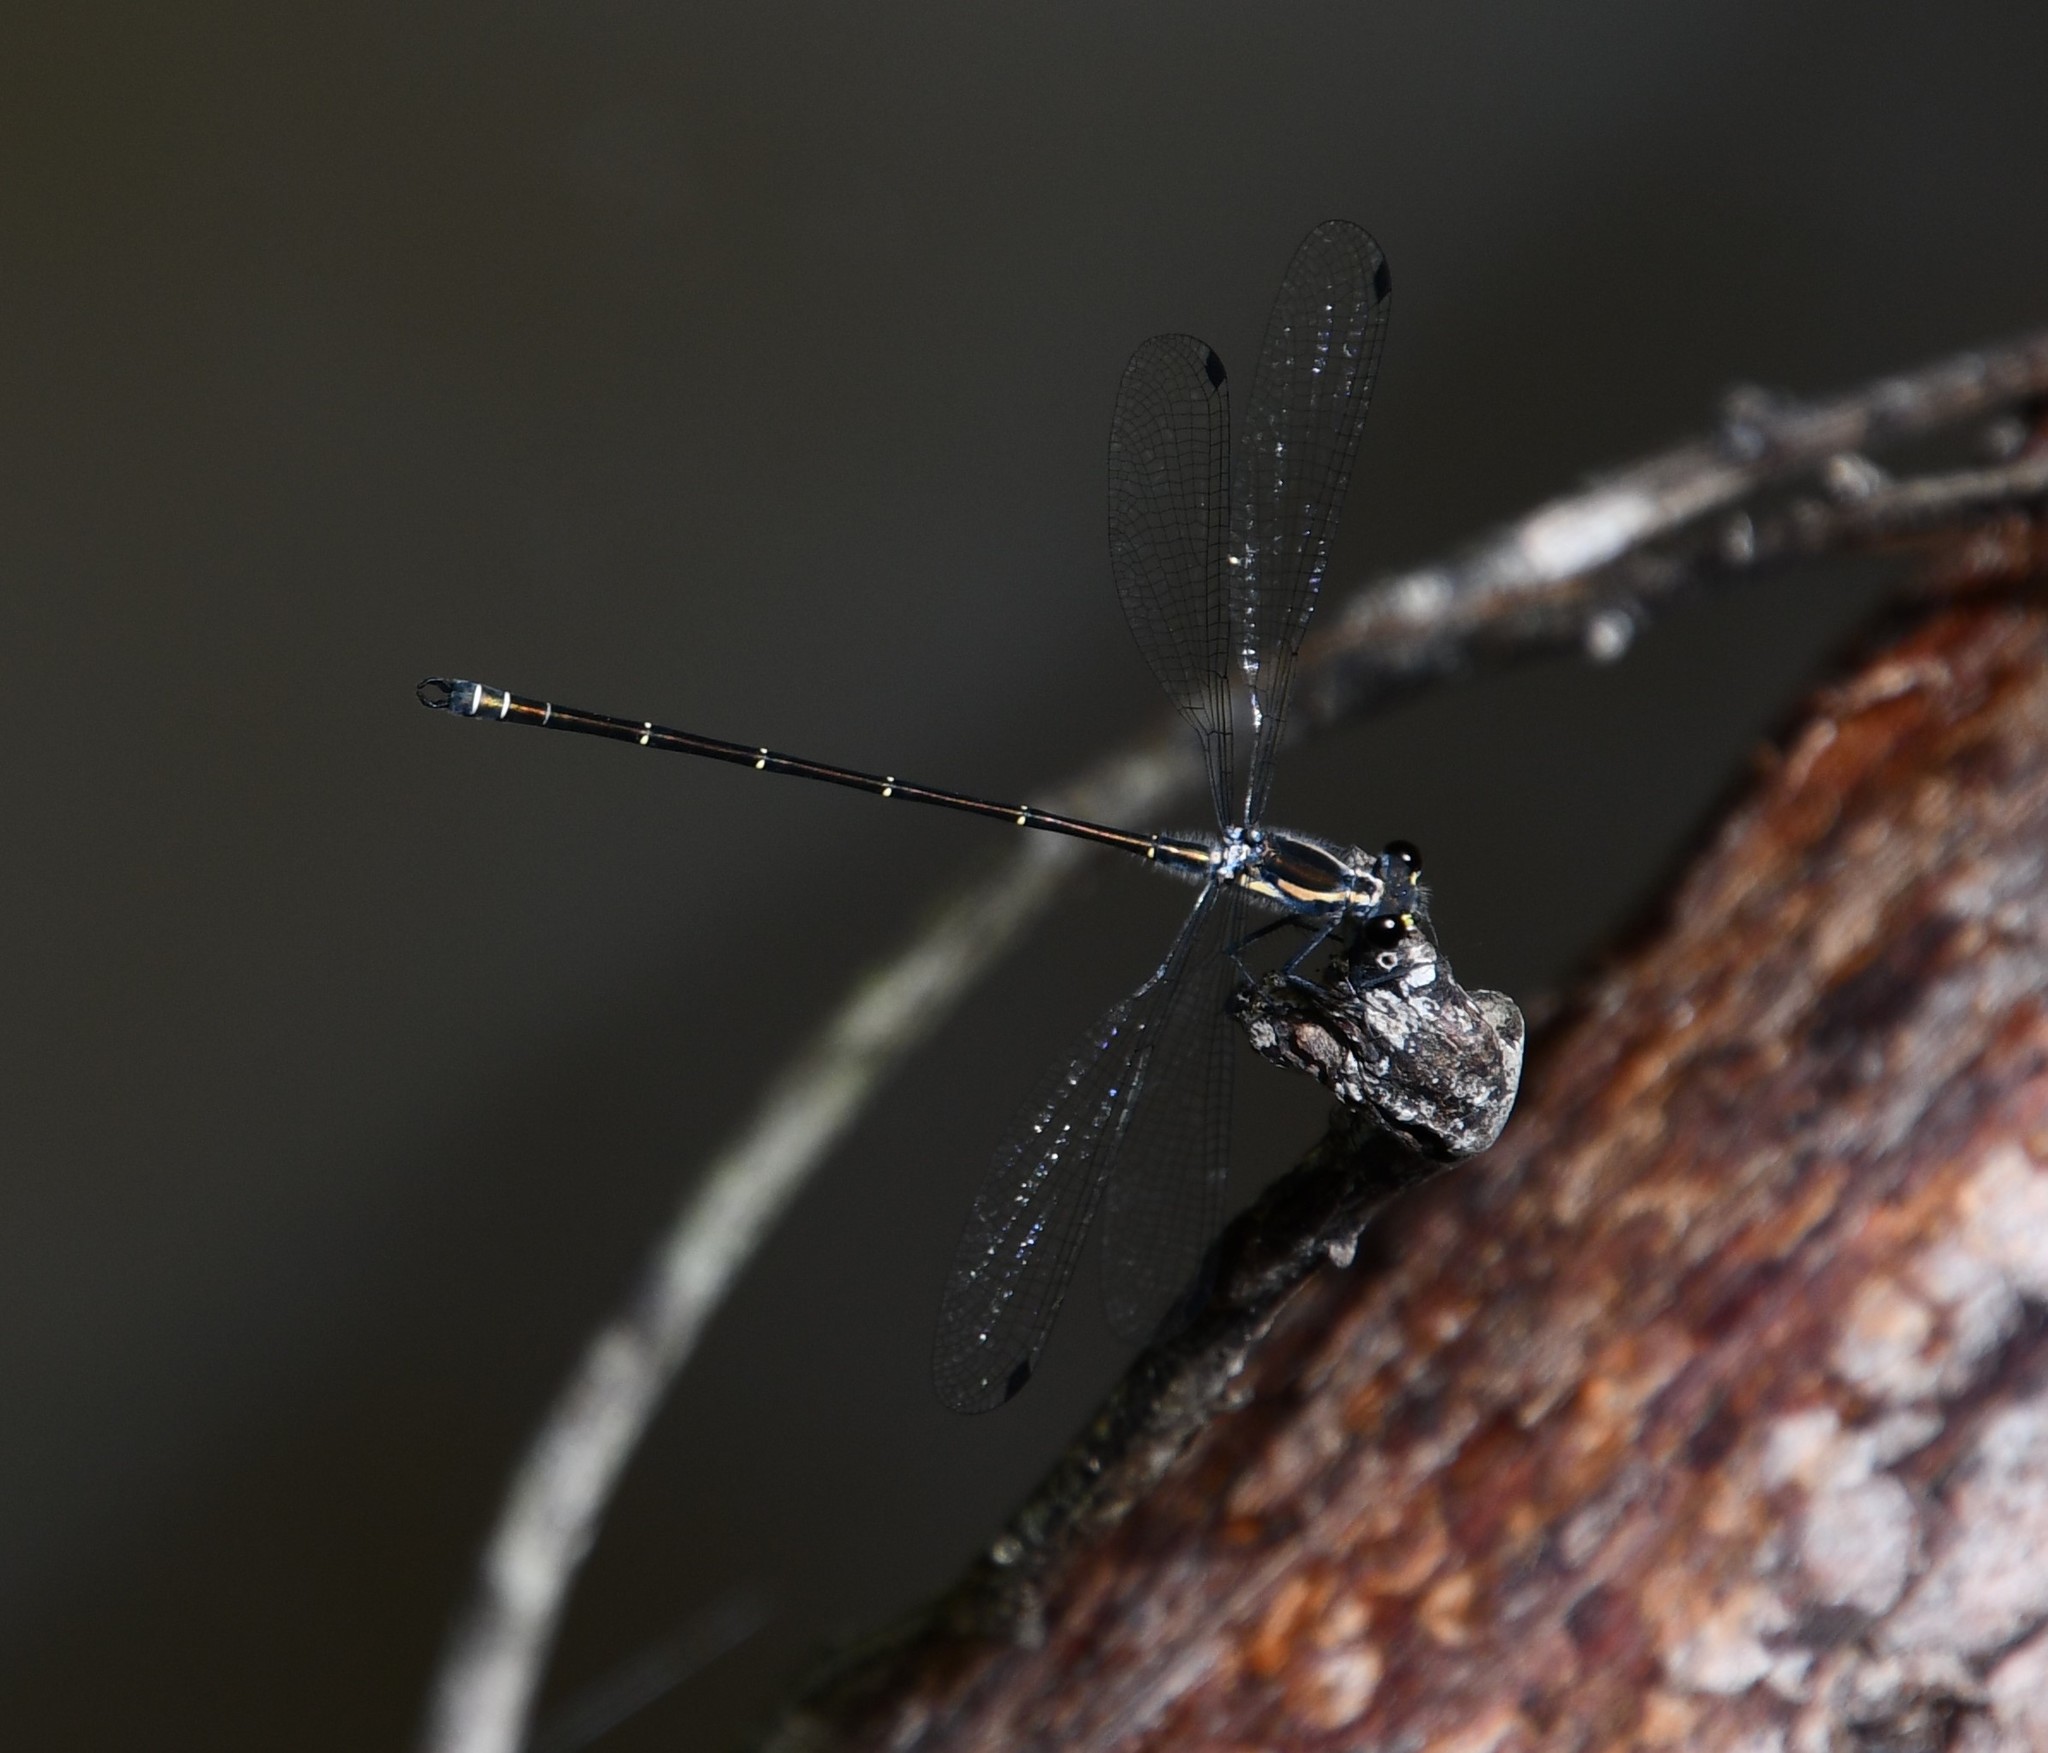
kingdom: Animalia
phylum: Arthropoda
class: Insecta
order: Odonata
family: Argiolestidae
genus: Austroargiolestes
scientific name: Austroargiolestes icteromelas
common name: Common flatwing
